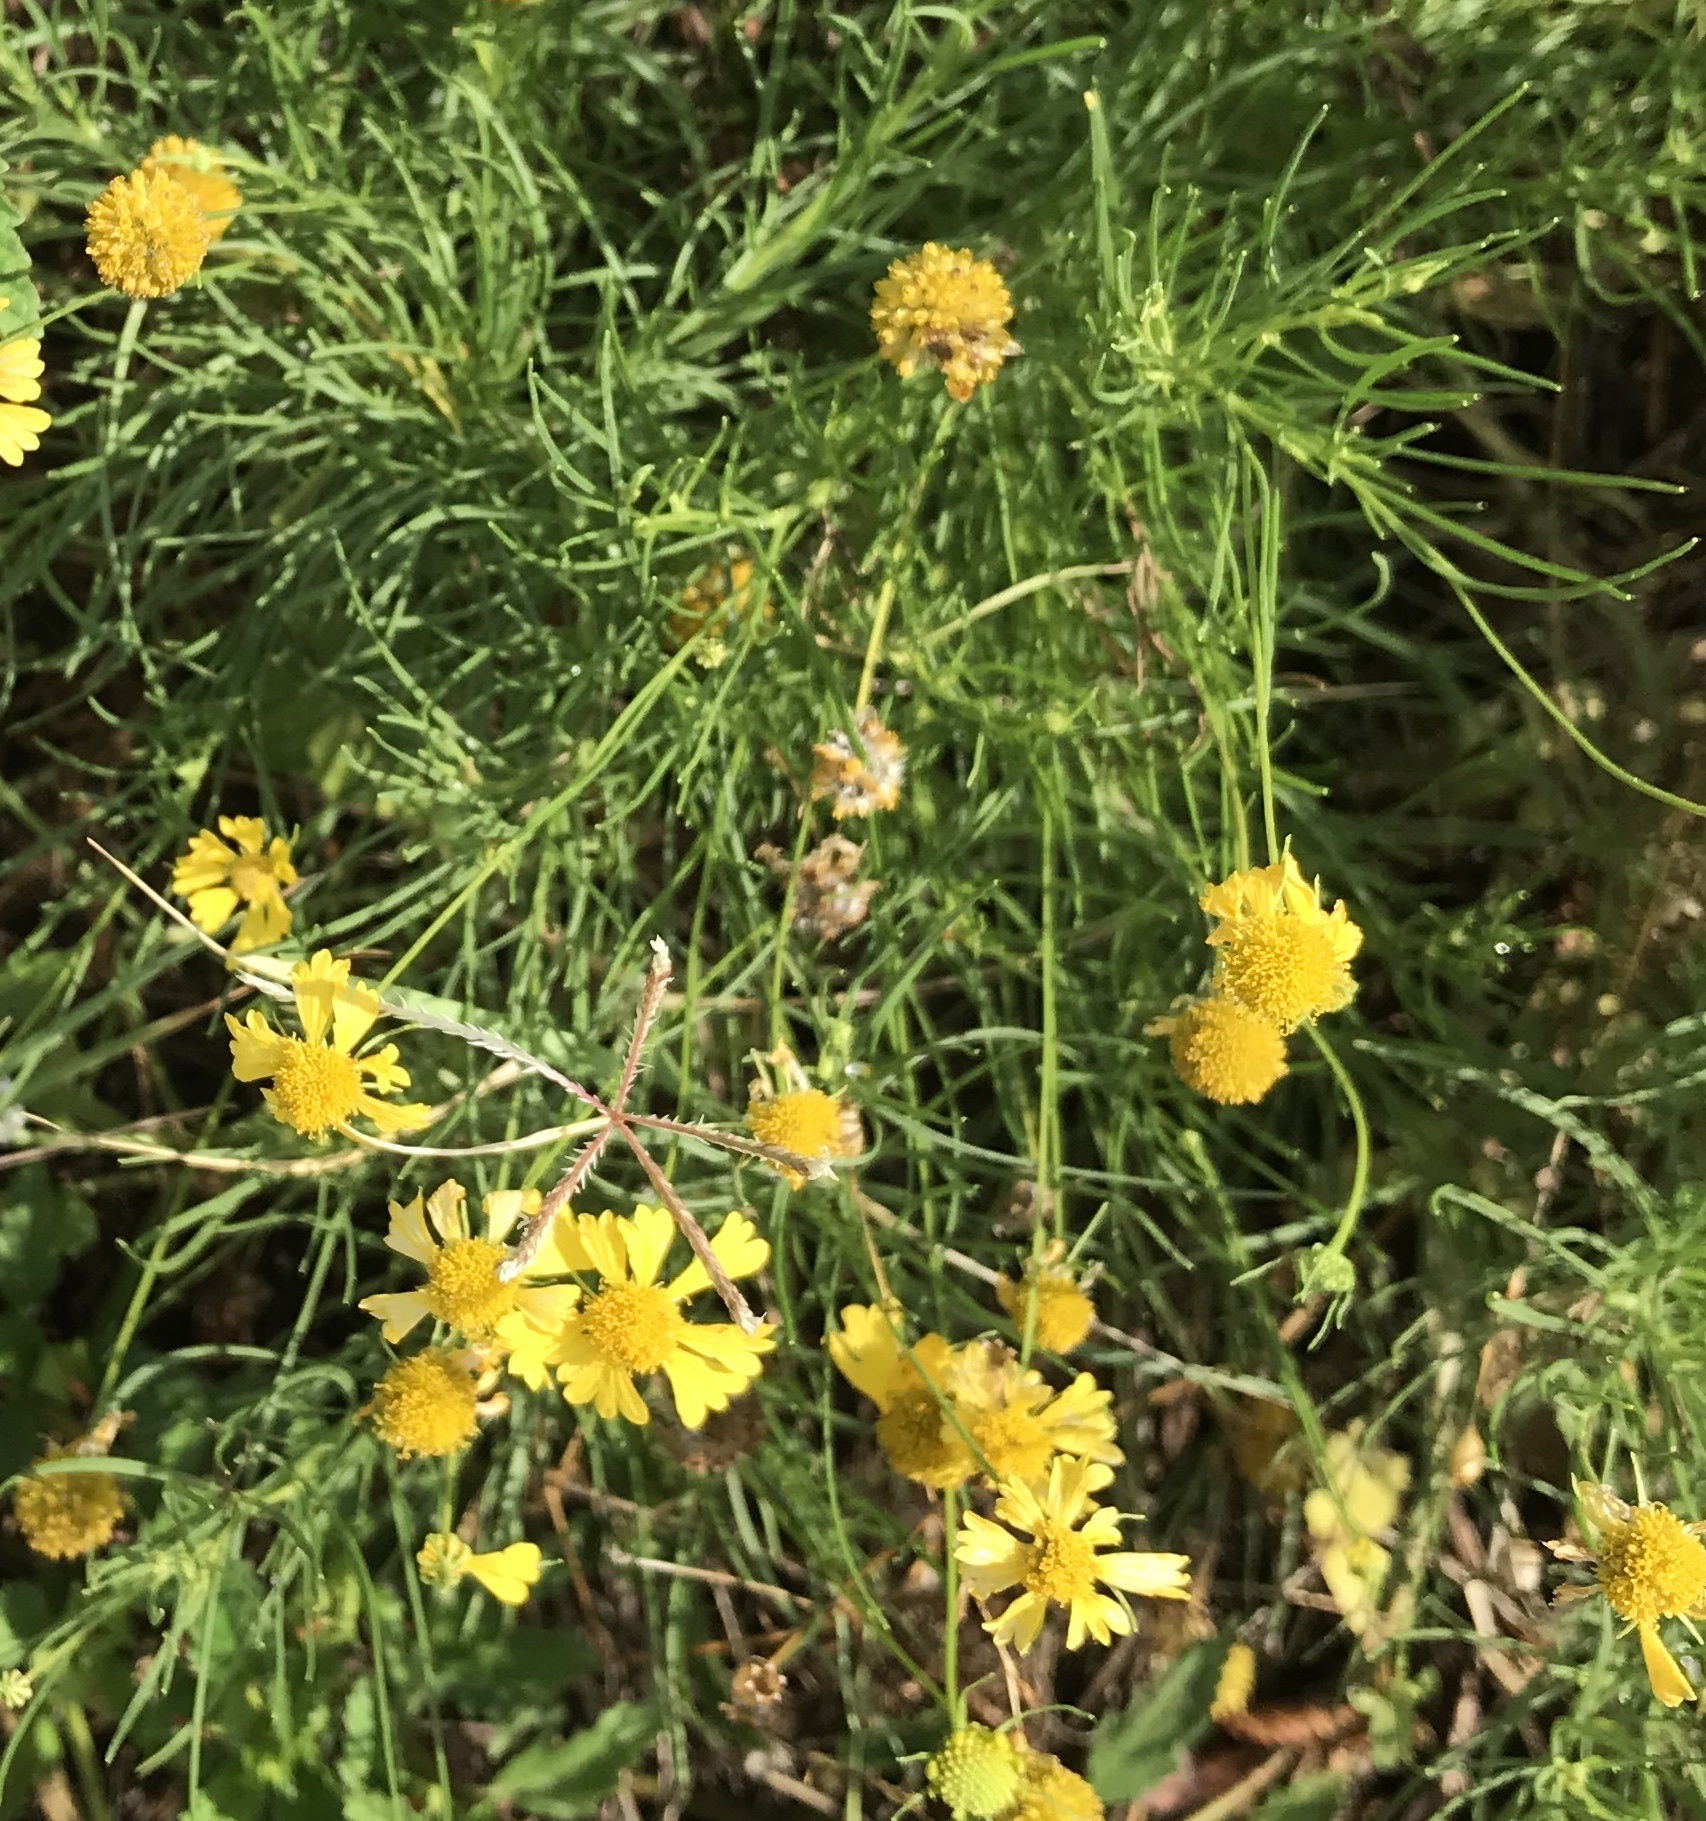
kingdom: Plantae
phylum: Tracheophyta
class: Magnoliopsida
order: Asterales
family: Asteraceae
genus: Helenium
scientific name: Helenium amarum
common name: Bitter sneezeweed
